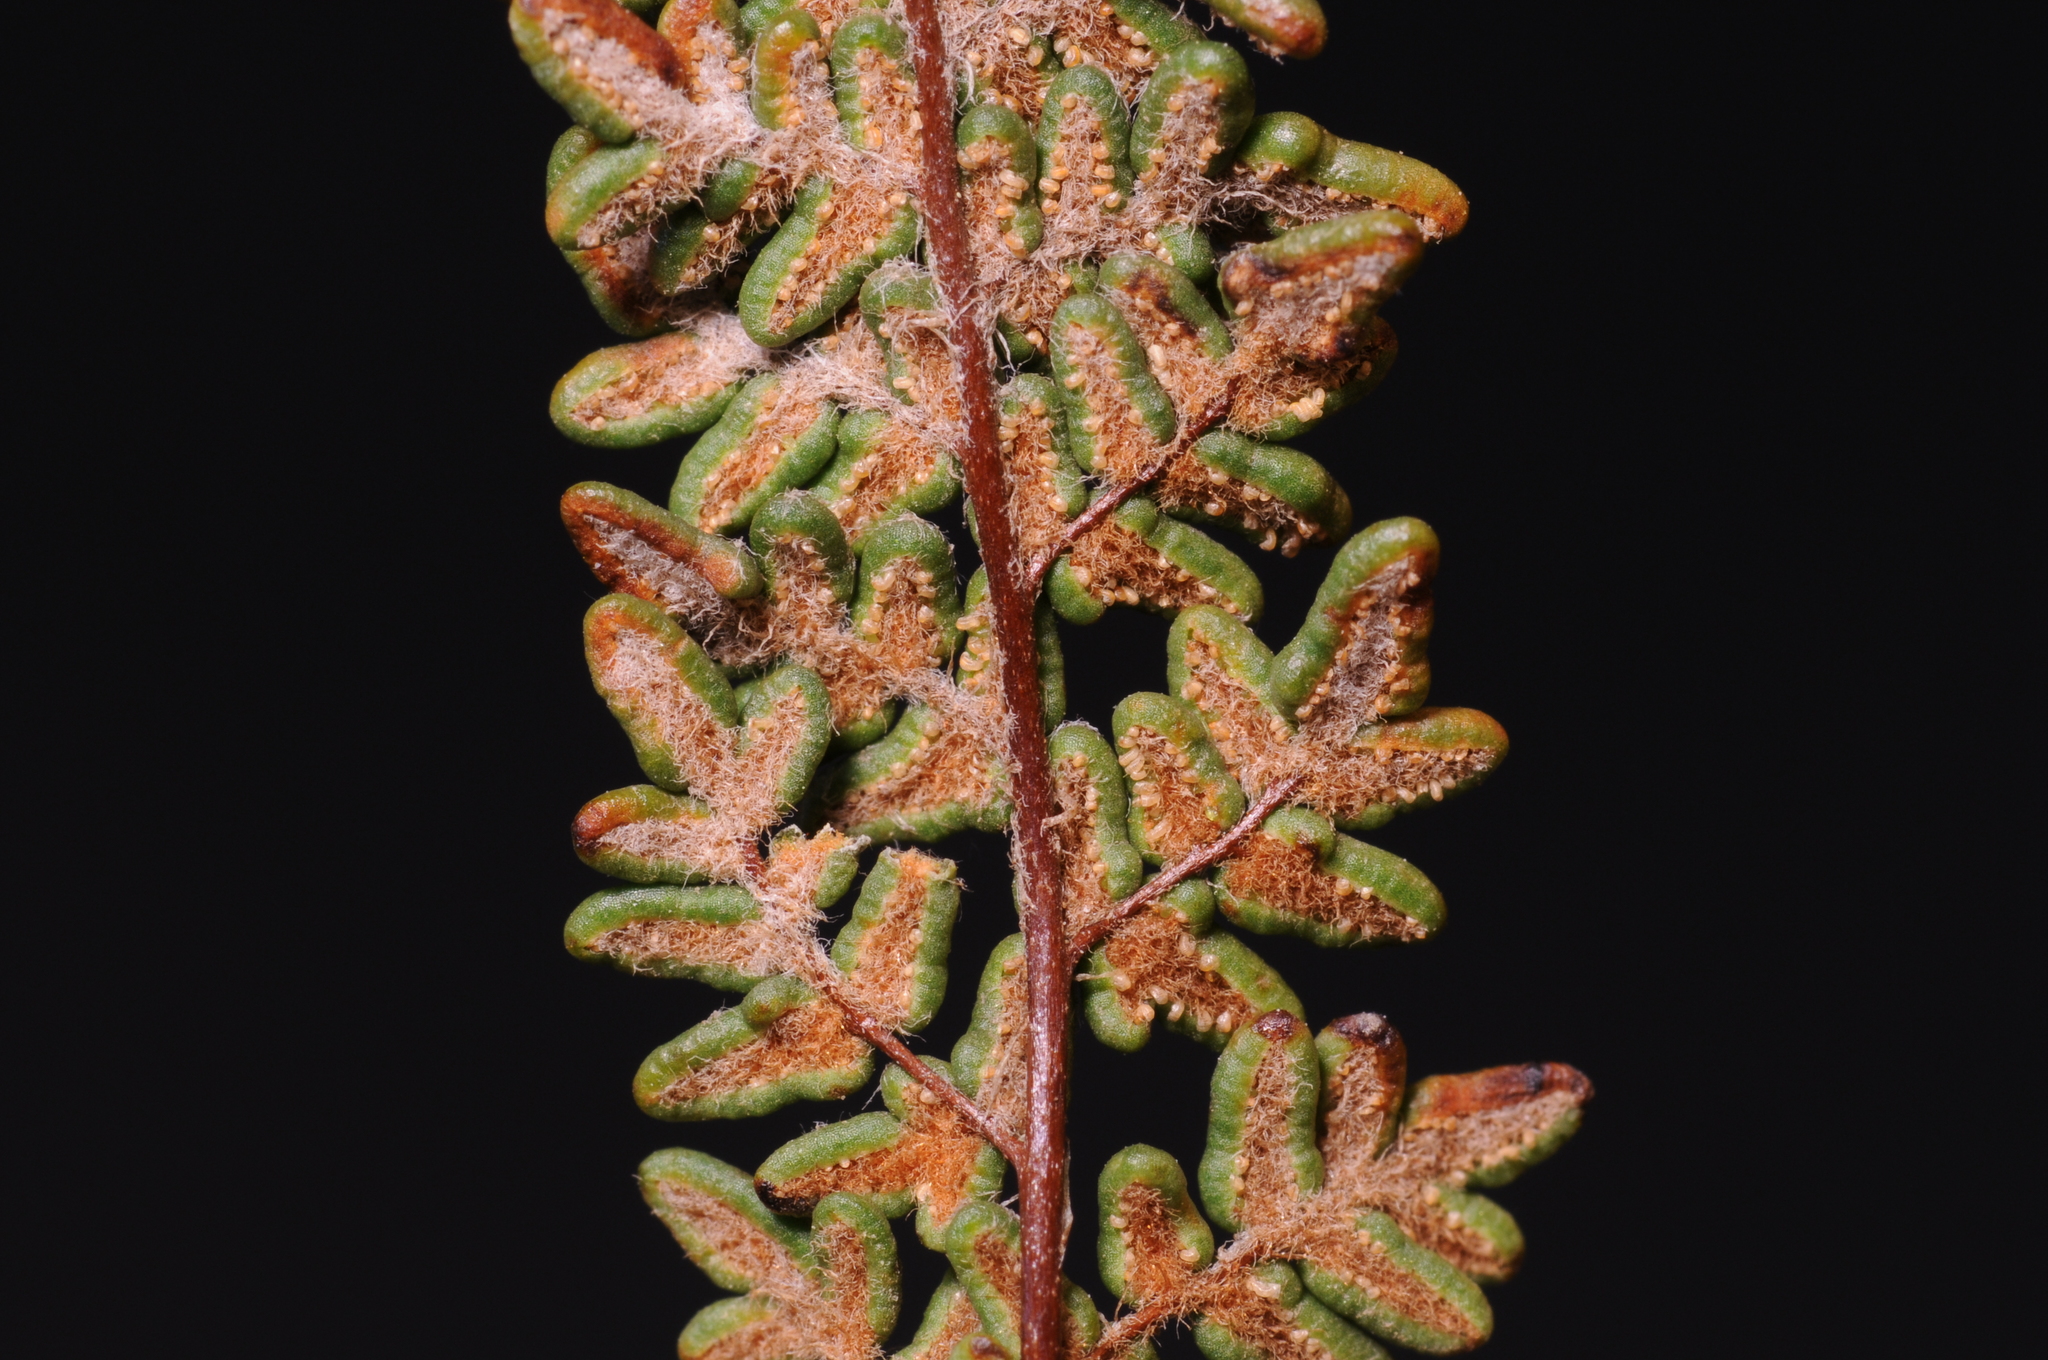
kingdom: Plantae
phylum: Tracheophyta
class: Polypodiopsida
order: Polypodiales
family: Pteridaceae
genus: Myriopteris
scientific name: Myriopteris gracillima
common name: Lace fern
